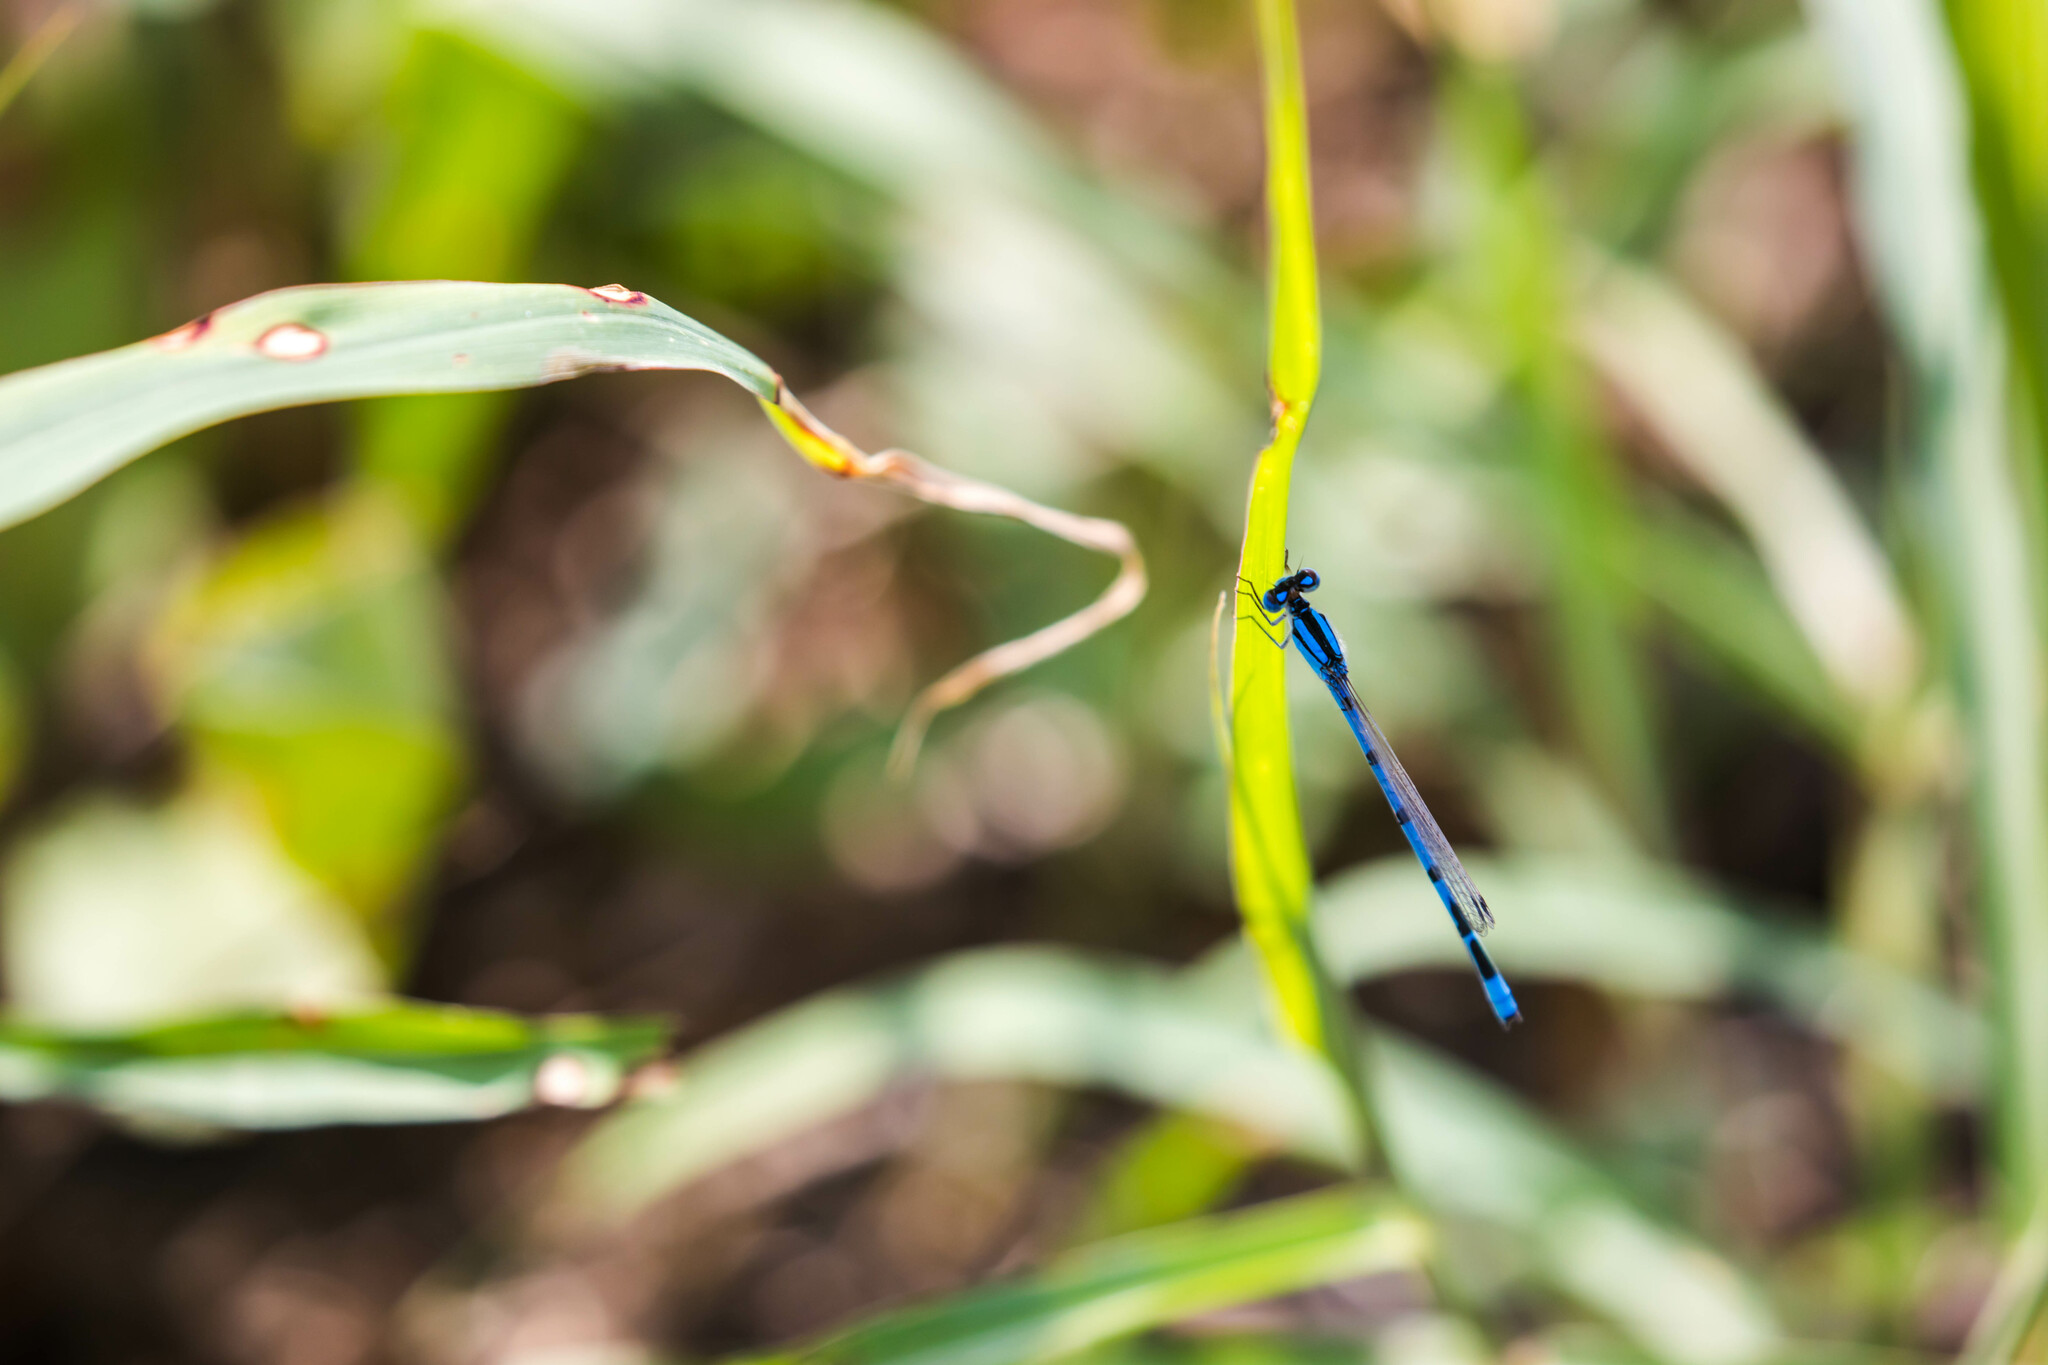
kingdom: Animalia
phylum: Arthropoda
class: Insecta
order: Odonata
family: Coenagrionidae
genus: Enallagma
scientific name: Enallagma civile
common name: Damselfly
